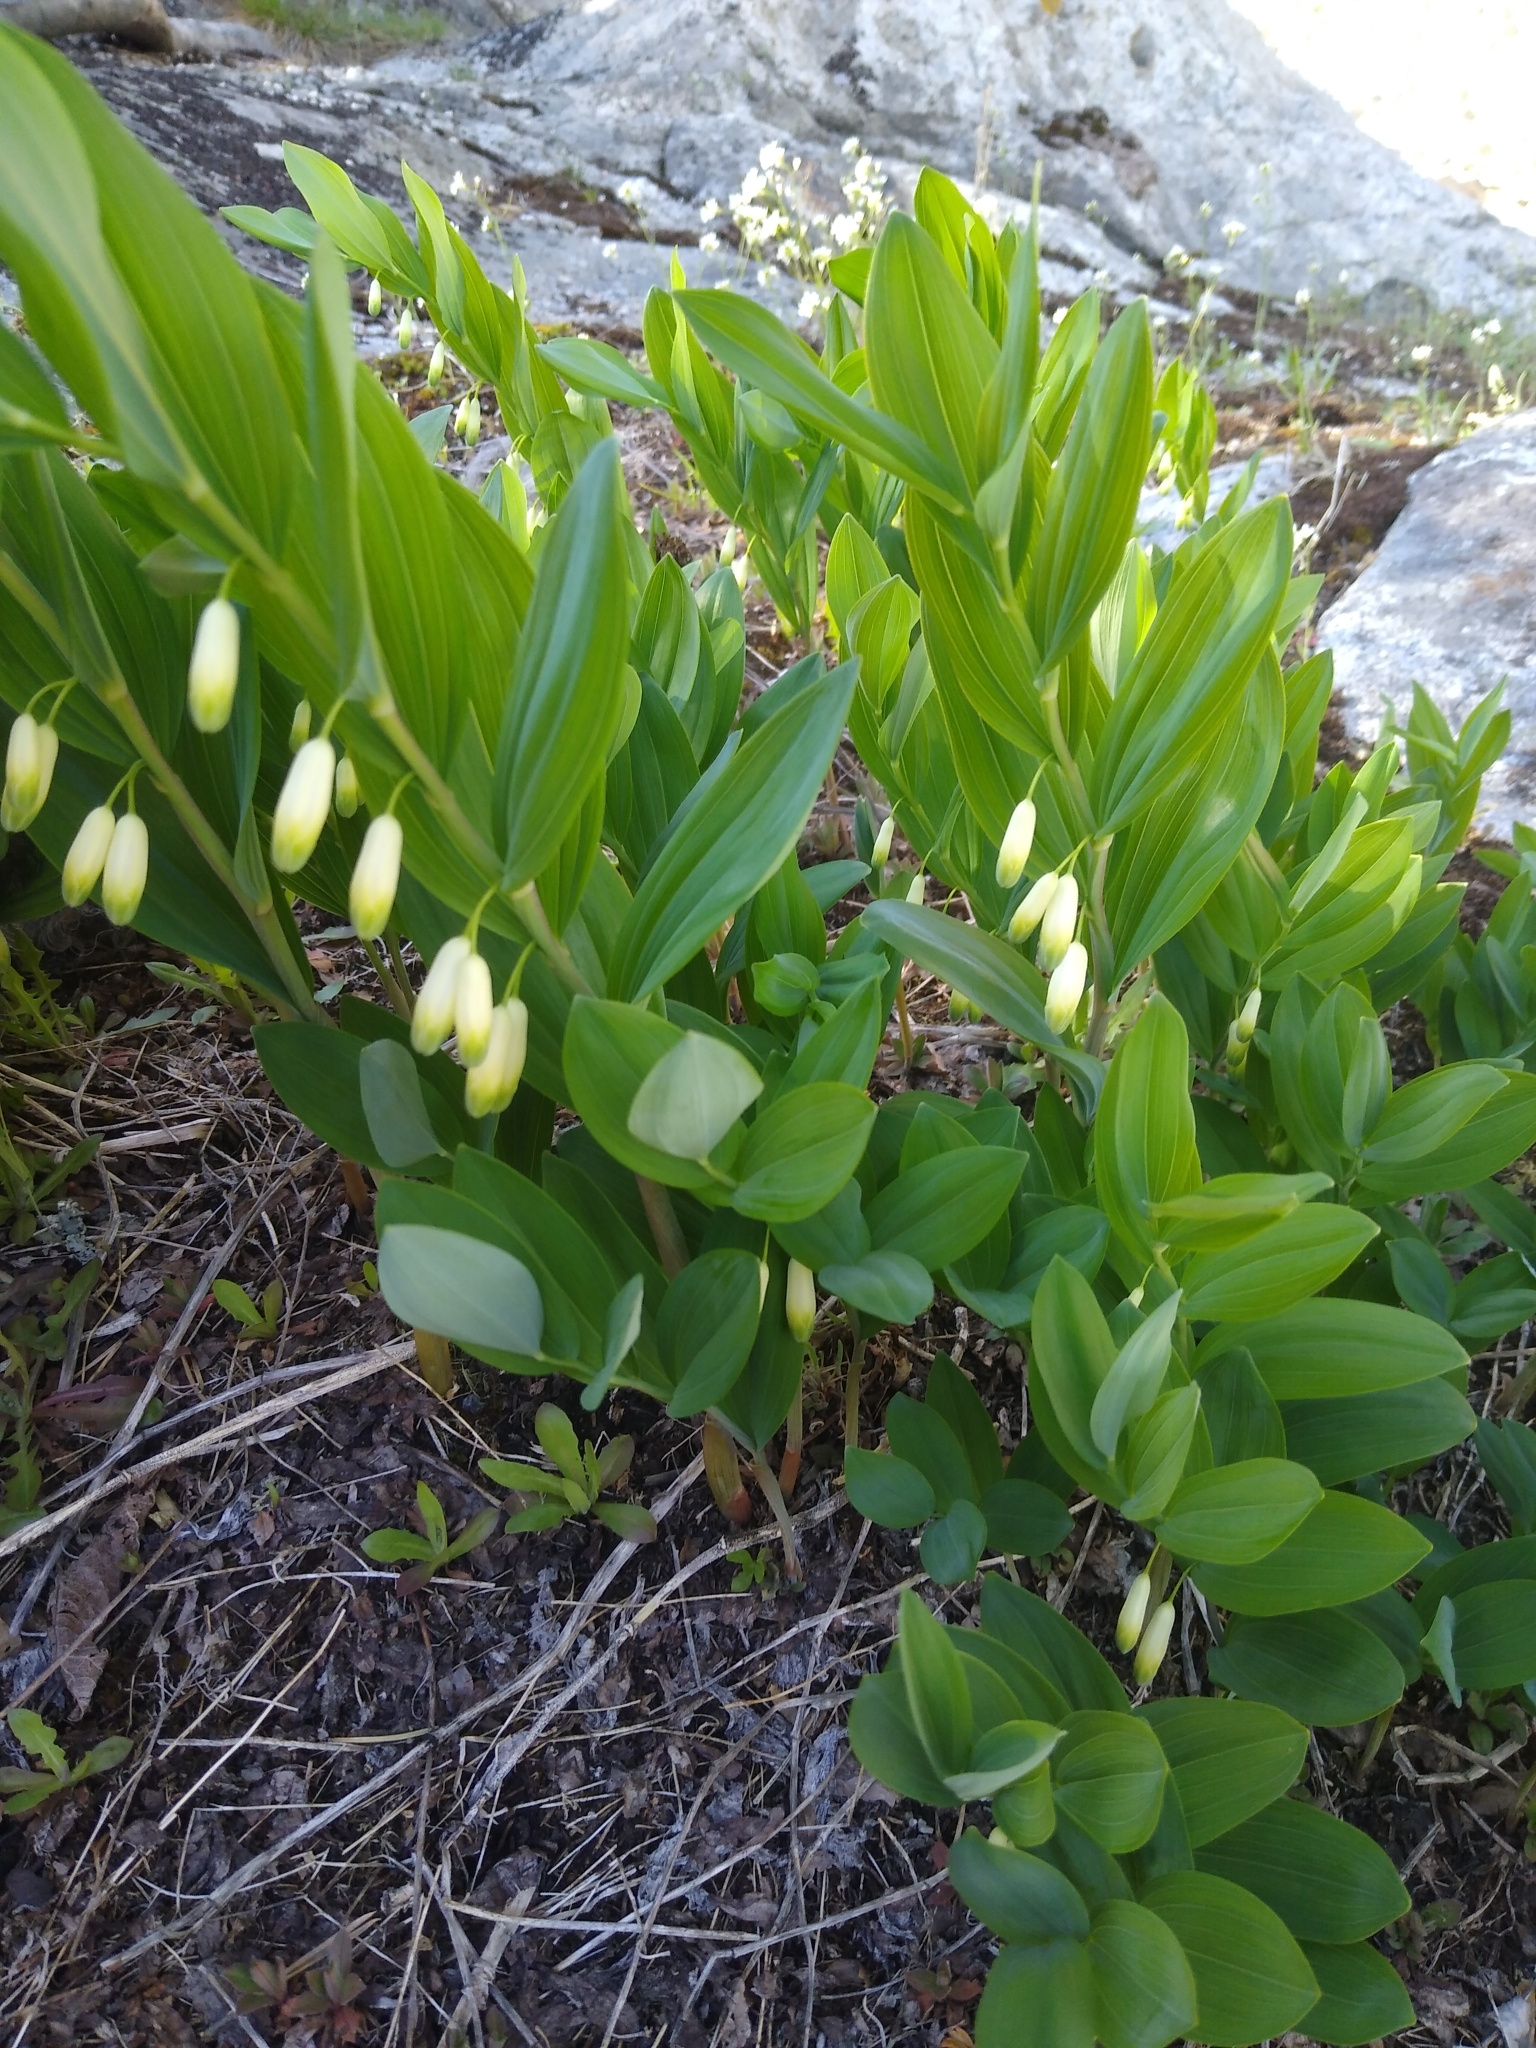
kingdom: Plantae
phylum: Tracheophyta
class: Liliopsida
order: Asparagales
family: Asparagaceae
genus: Polygonatum
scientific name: Polygonatum odoratum
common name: Angular solomon's-seal
